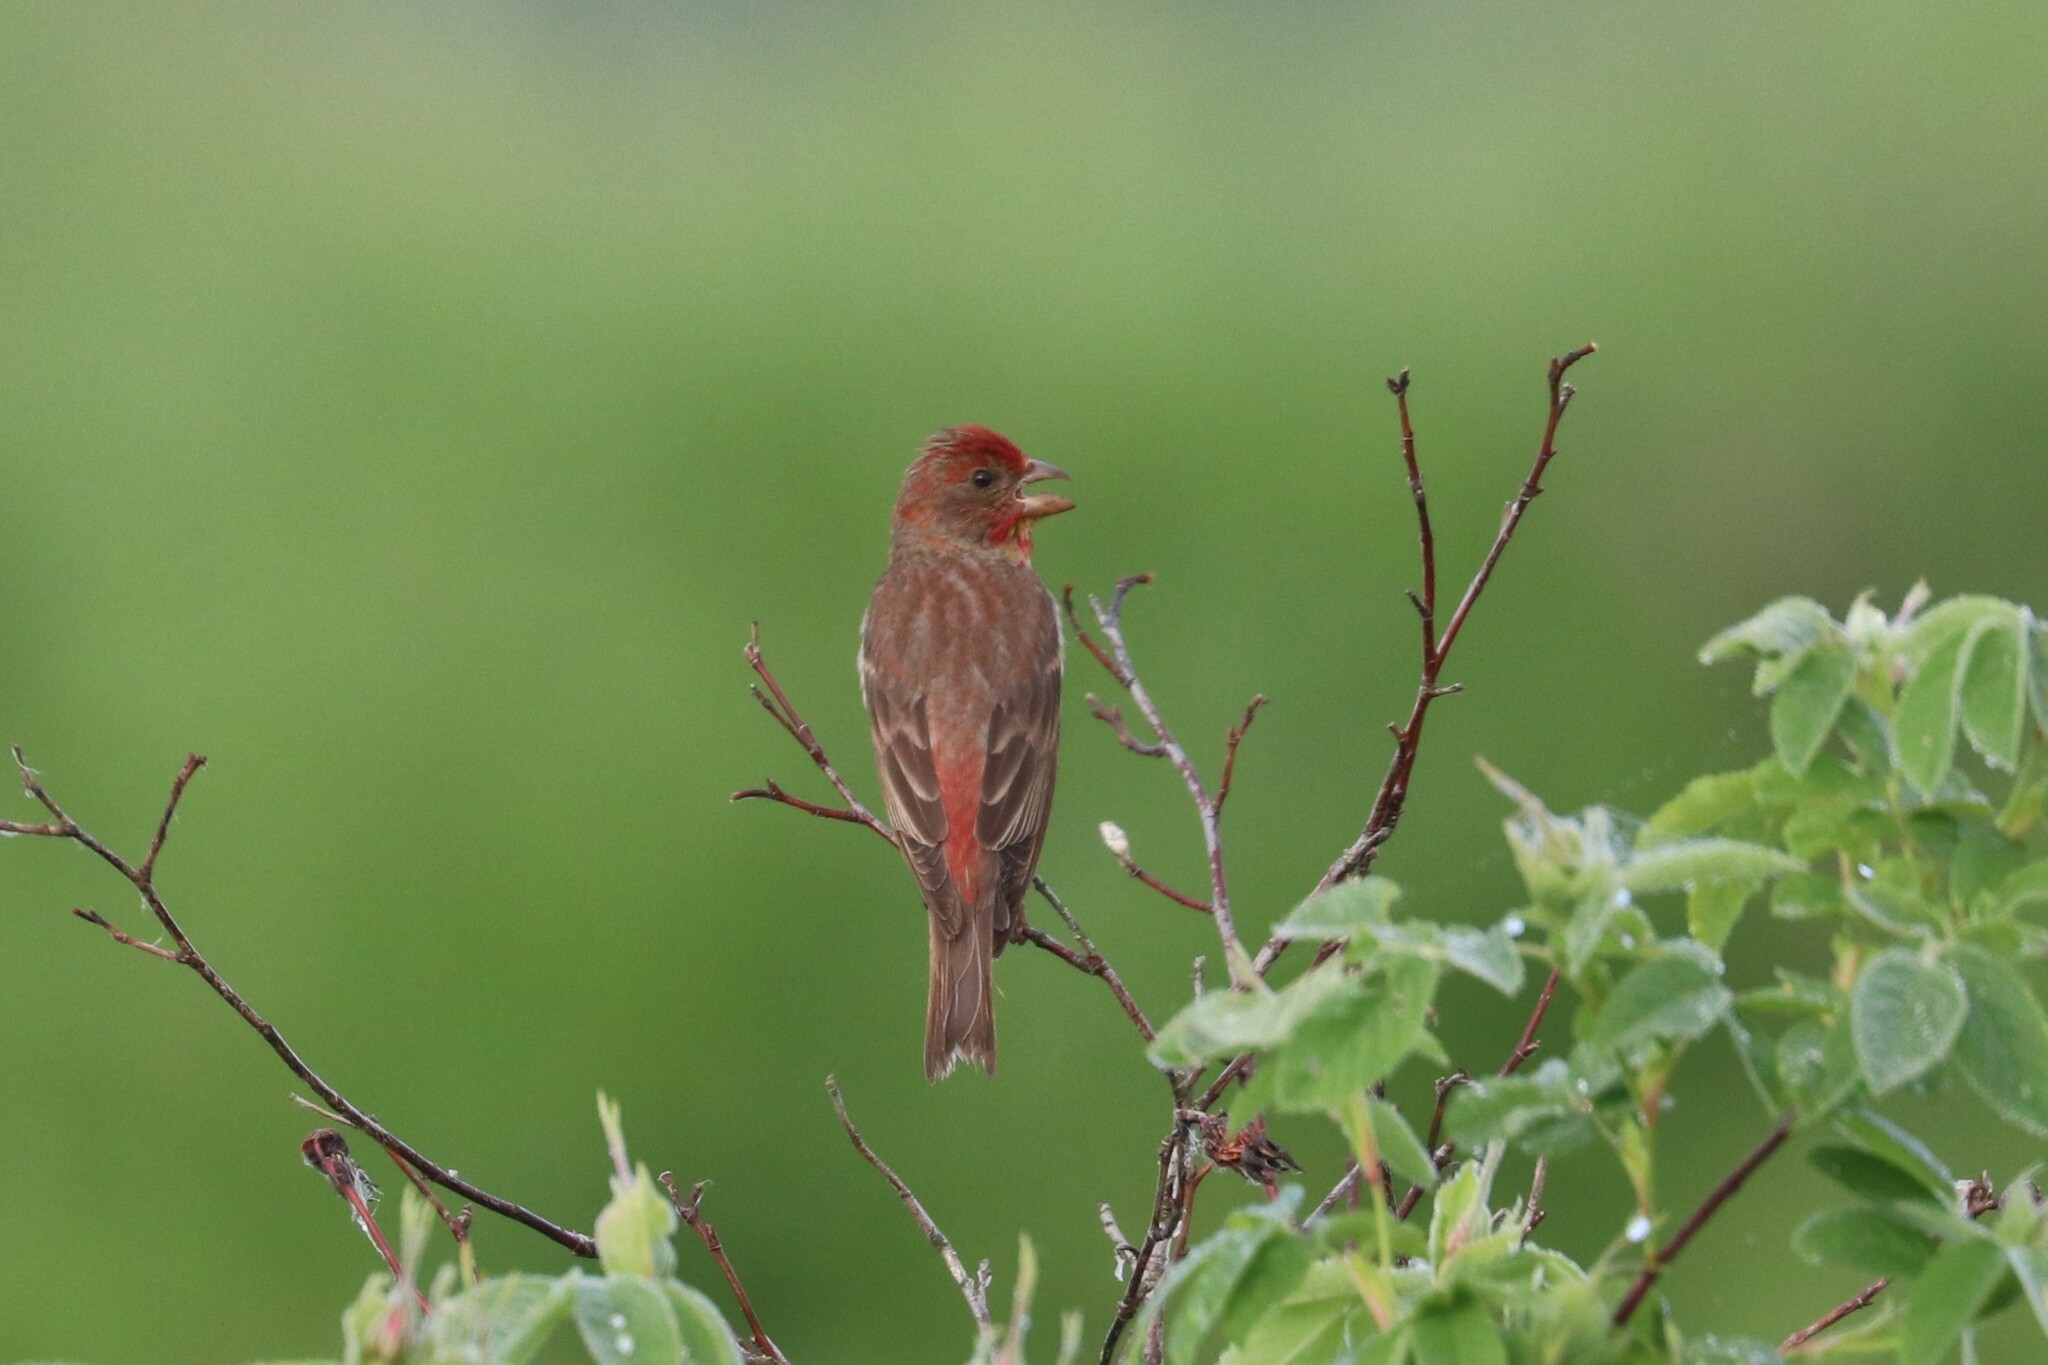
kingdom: Animalia
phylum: Chordata
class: Aves
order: Passeriformes
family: Fringillidae
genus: Carpodacus
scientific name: Carpodacus erythrinus
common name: Common rosefinch
